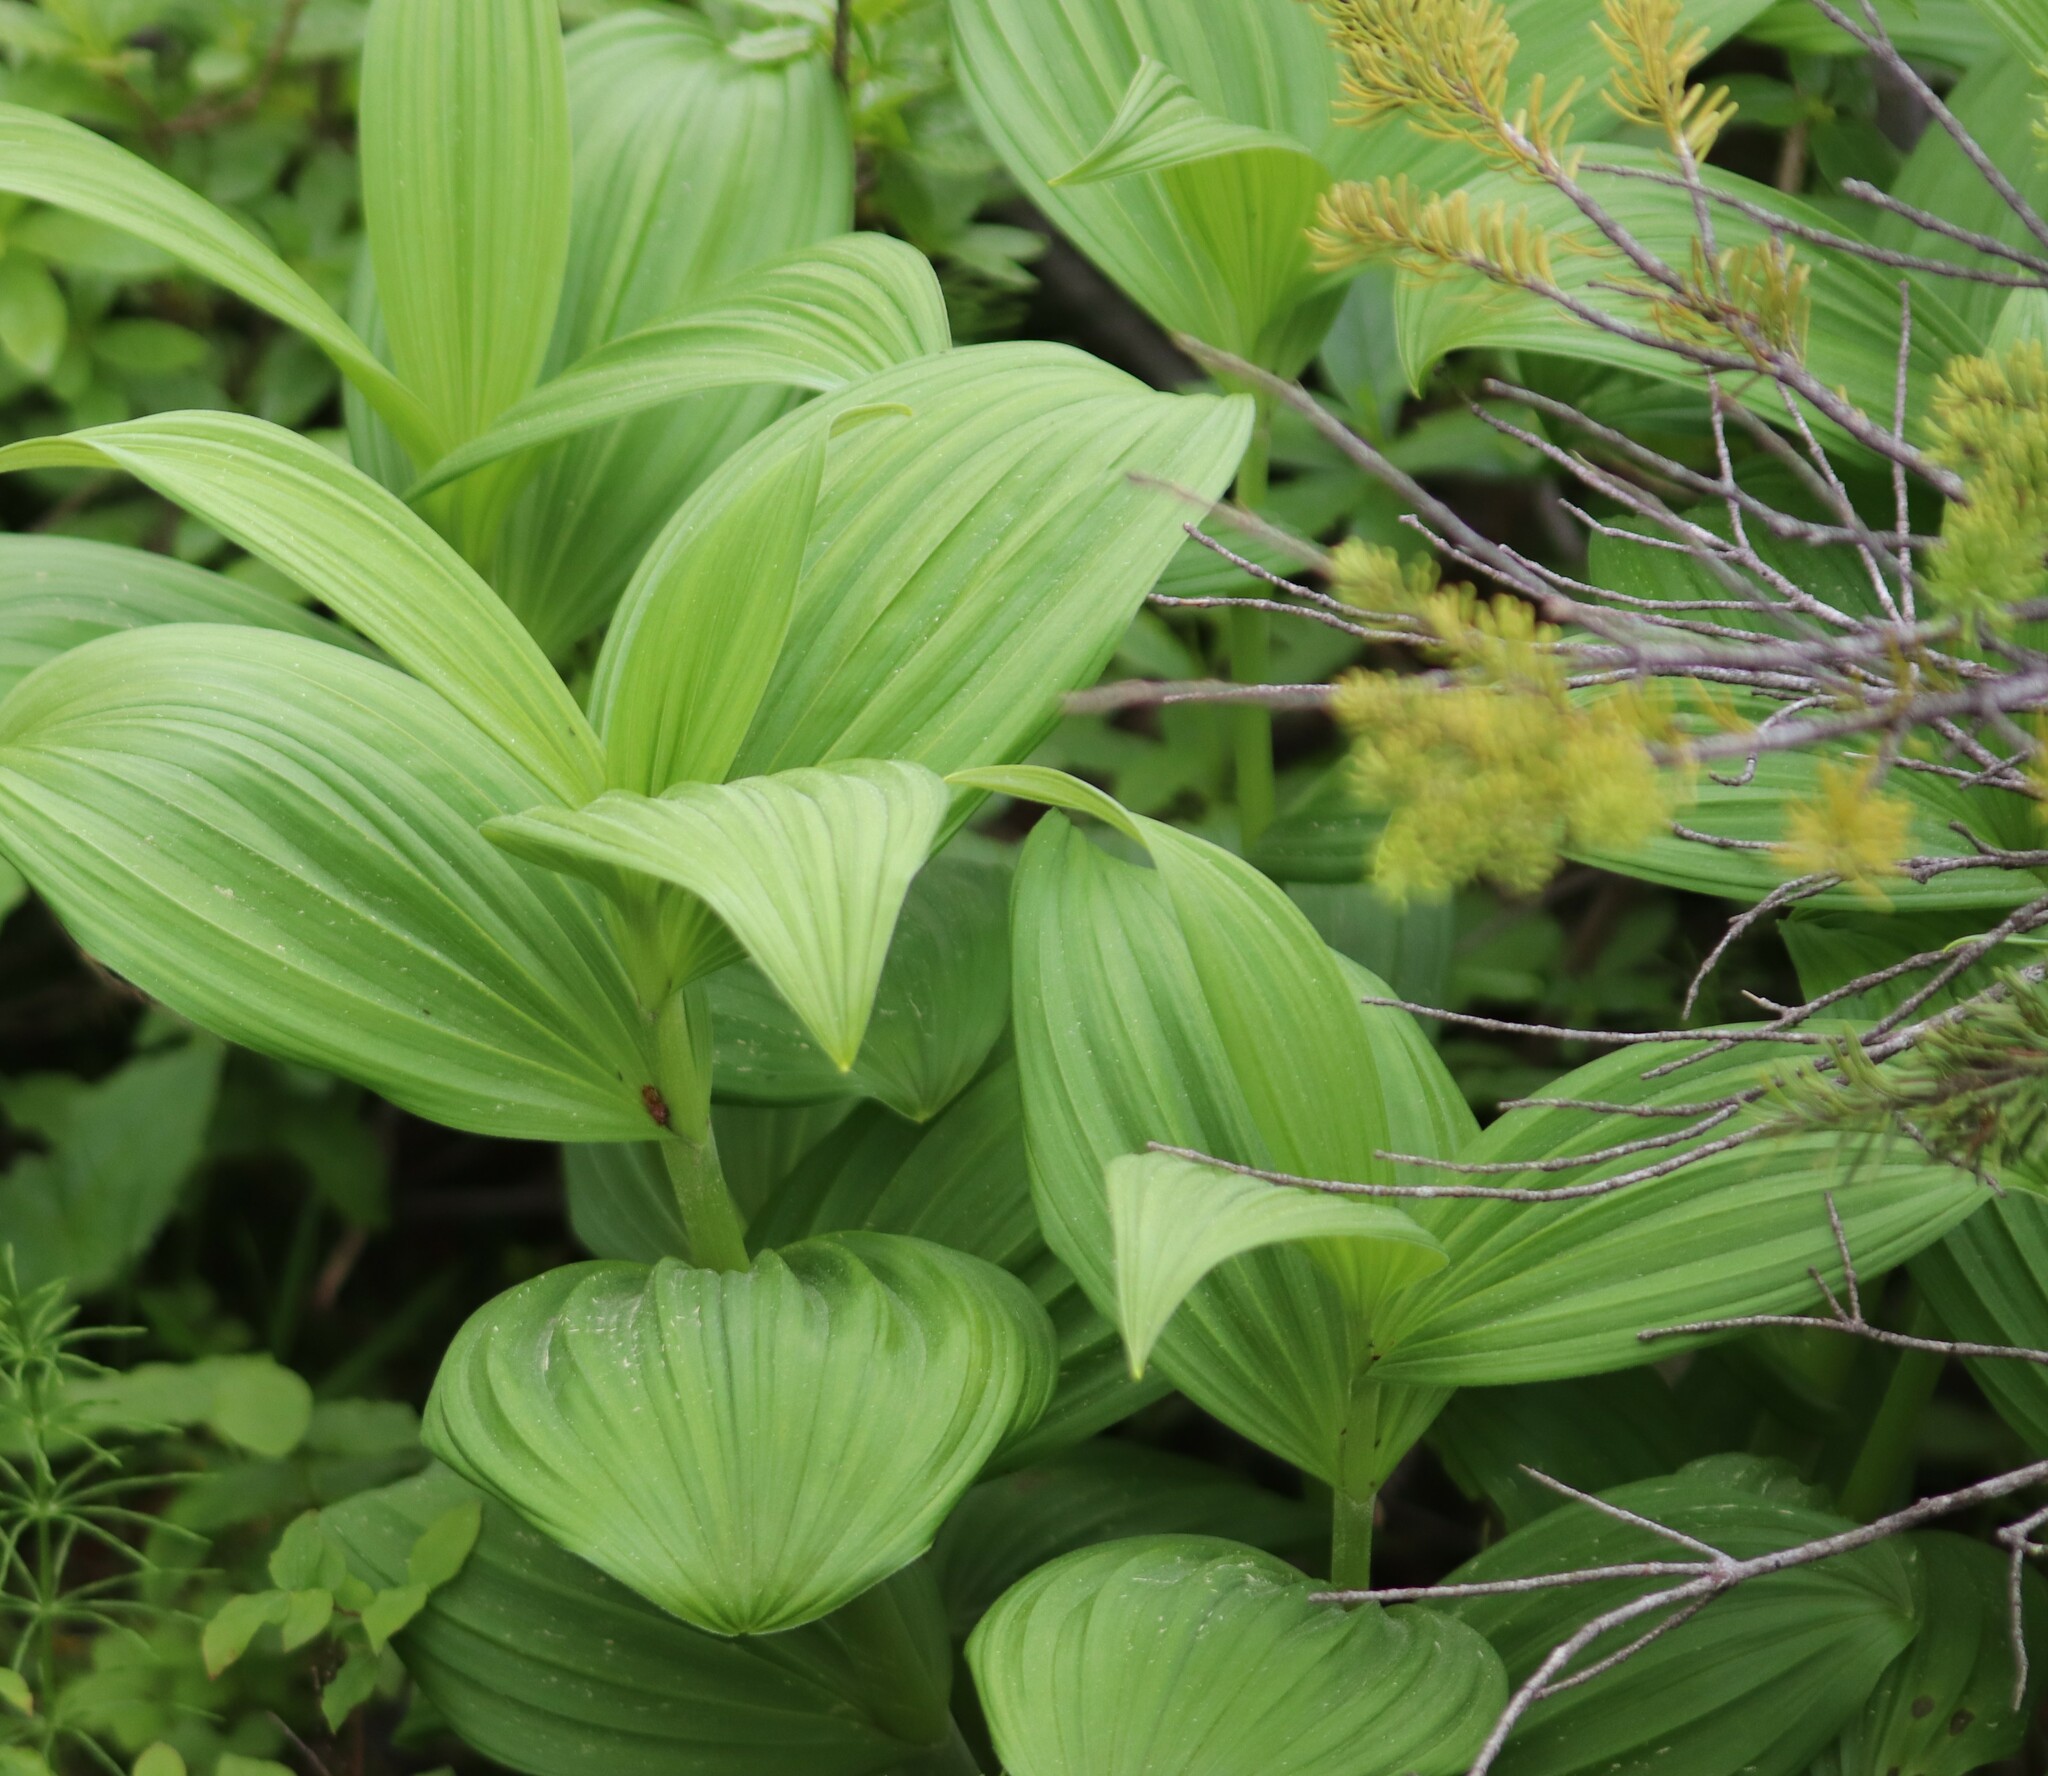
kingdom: Plantae
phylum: Tracheophyta
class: Liliopsida
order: Liliales
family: Melanthiaceae
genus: Veratrum
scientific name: Veratrum viride
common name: American false hellebore
